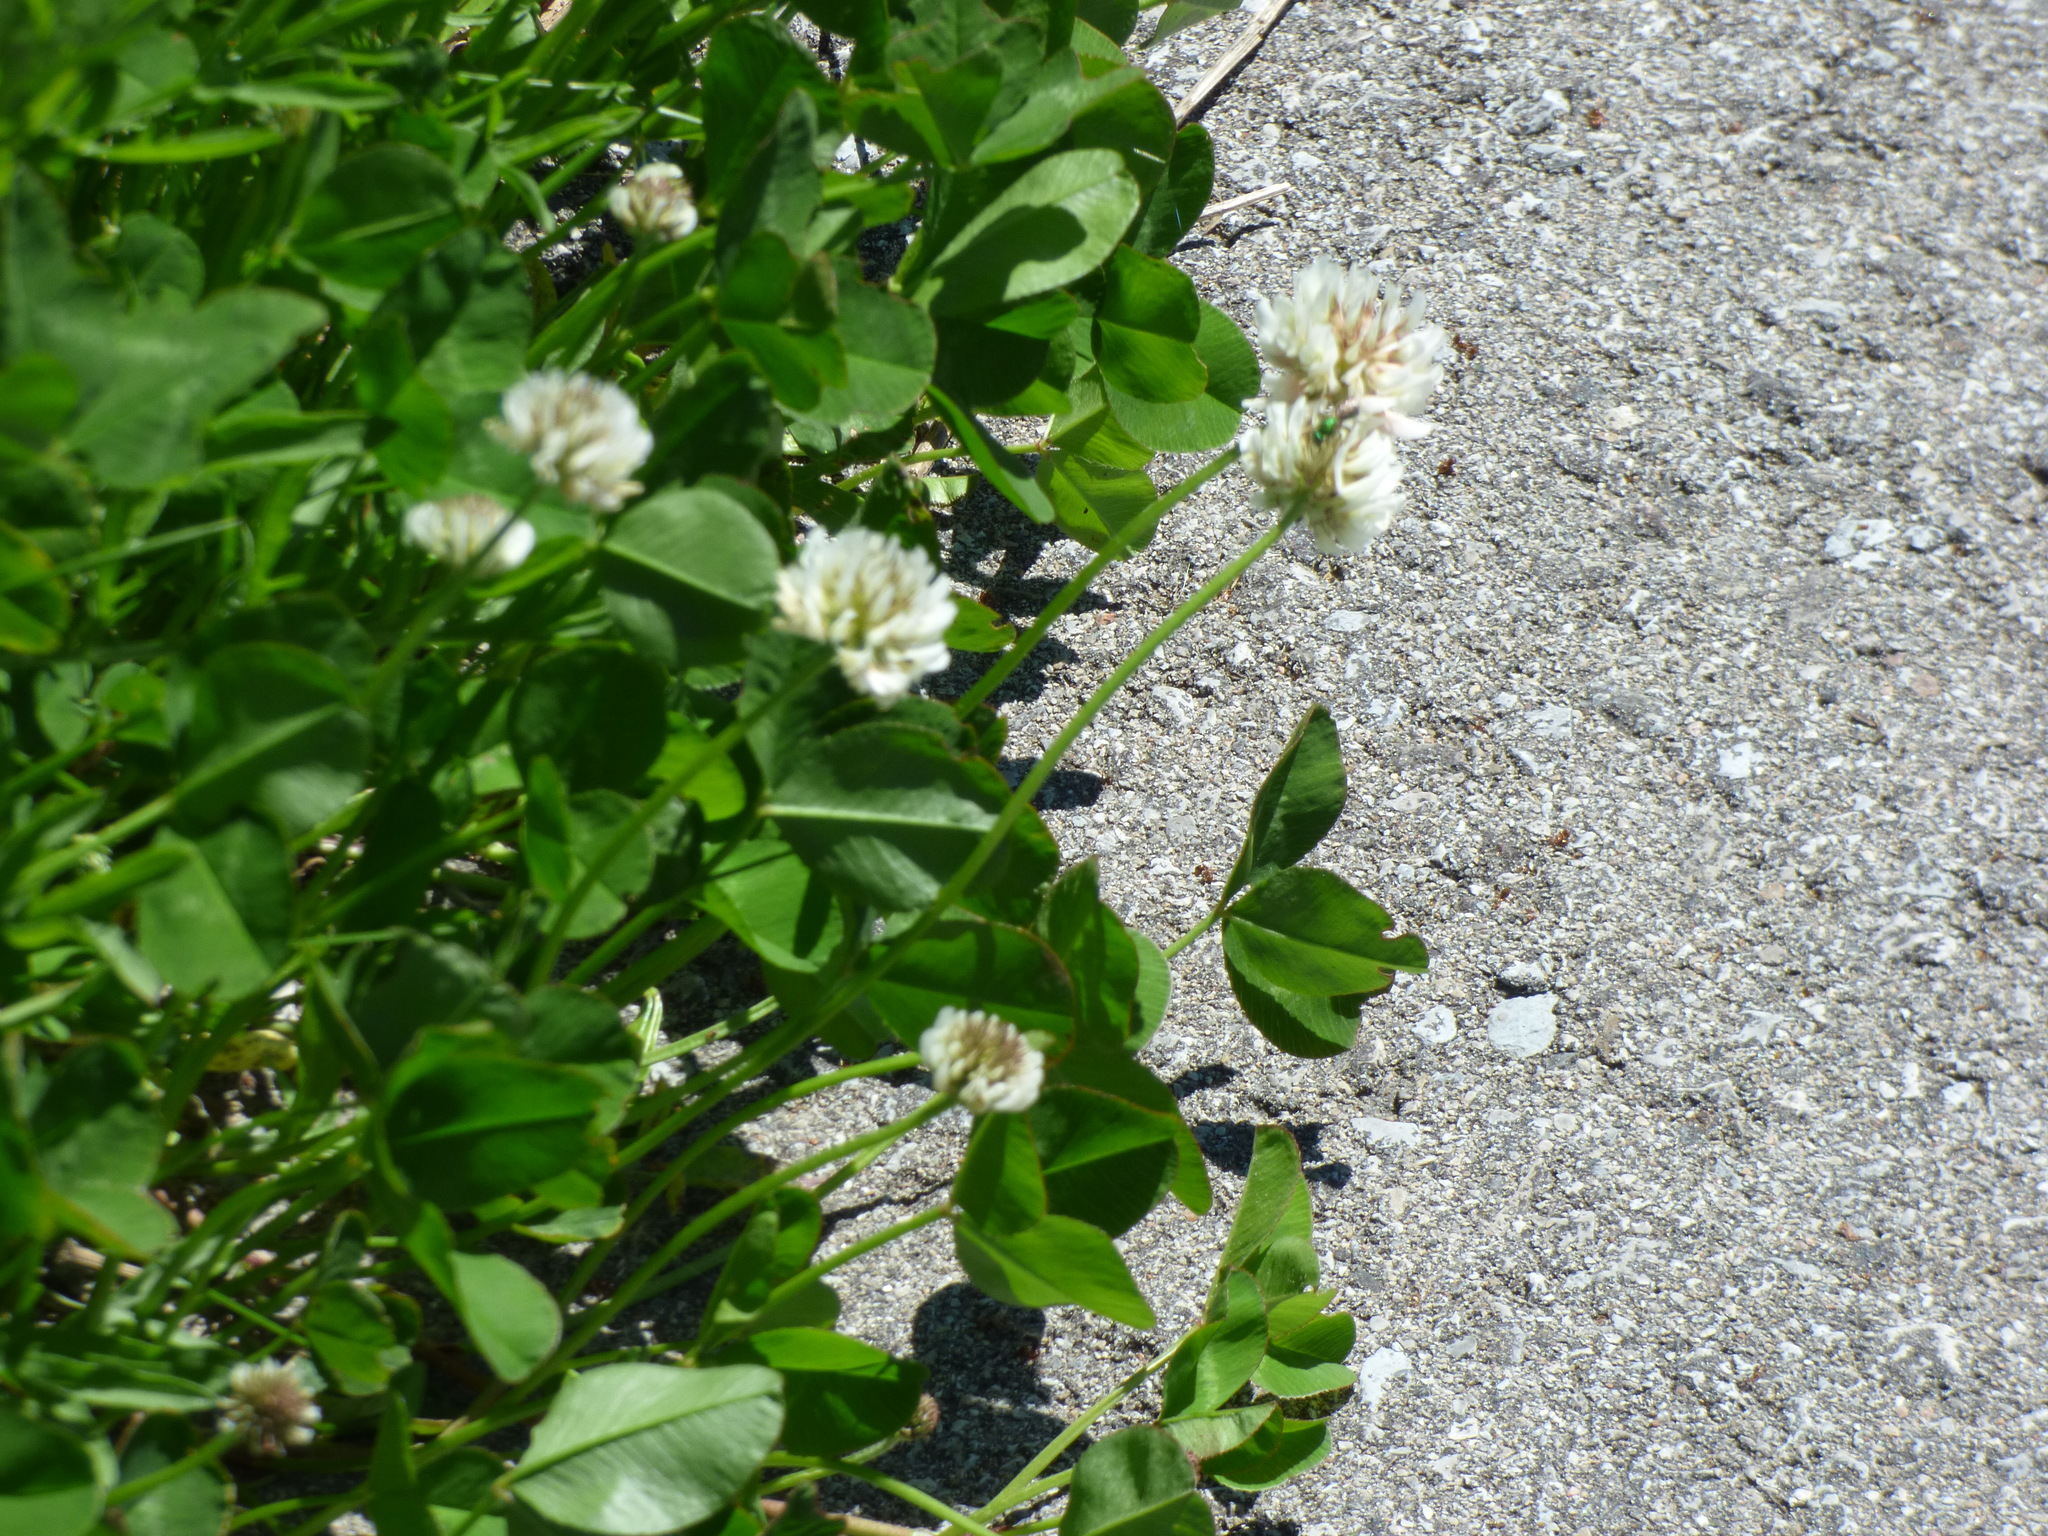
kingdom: Plantae
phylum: Tracheophyta
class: Magnoliopsida
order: Fabales
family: Fabaceae
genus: Trifolium
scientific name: Trifolium repens
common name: White clover
